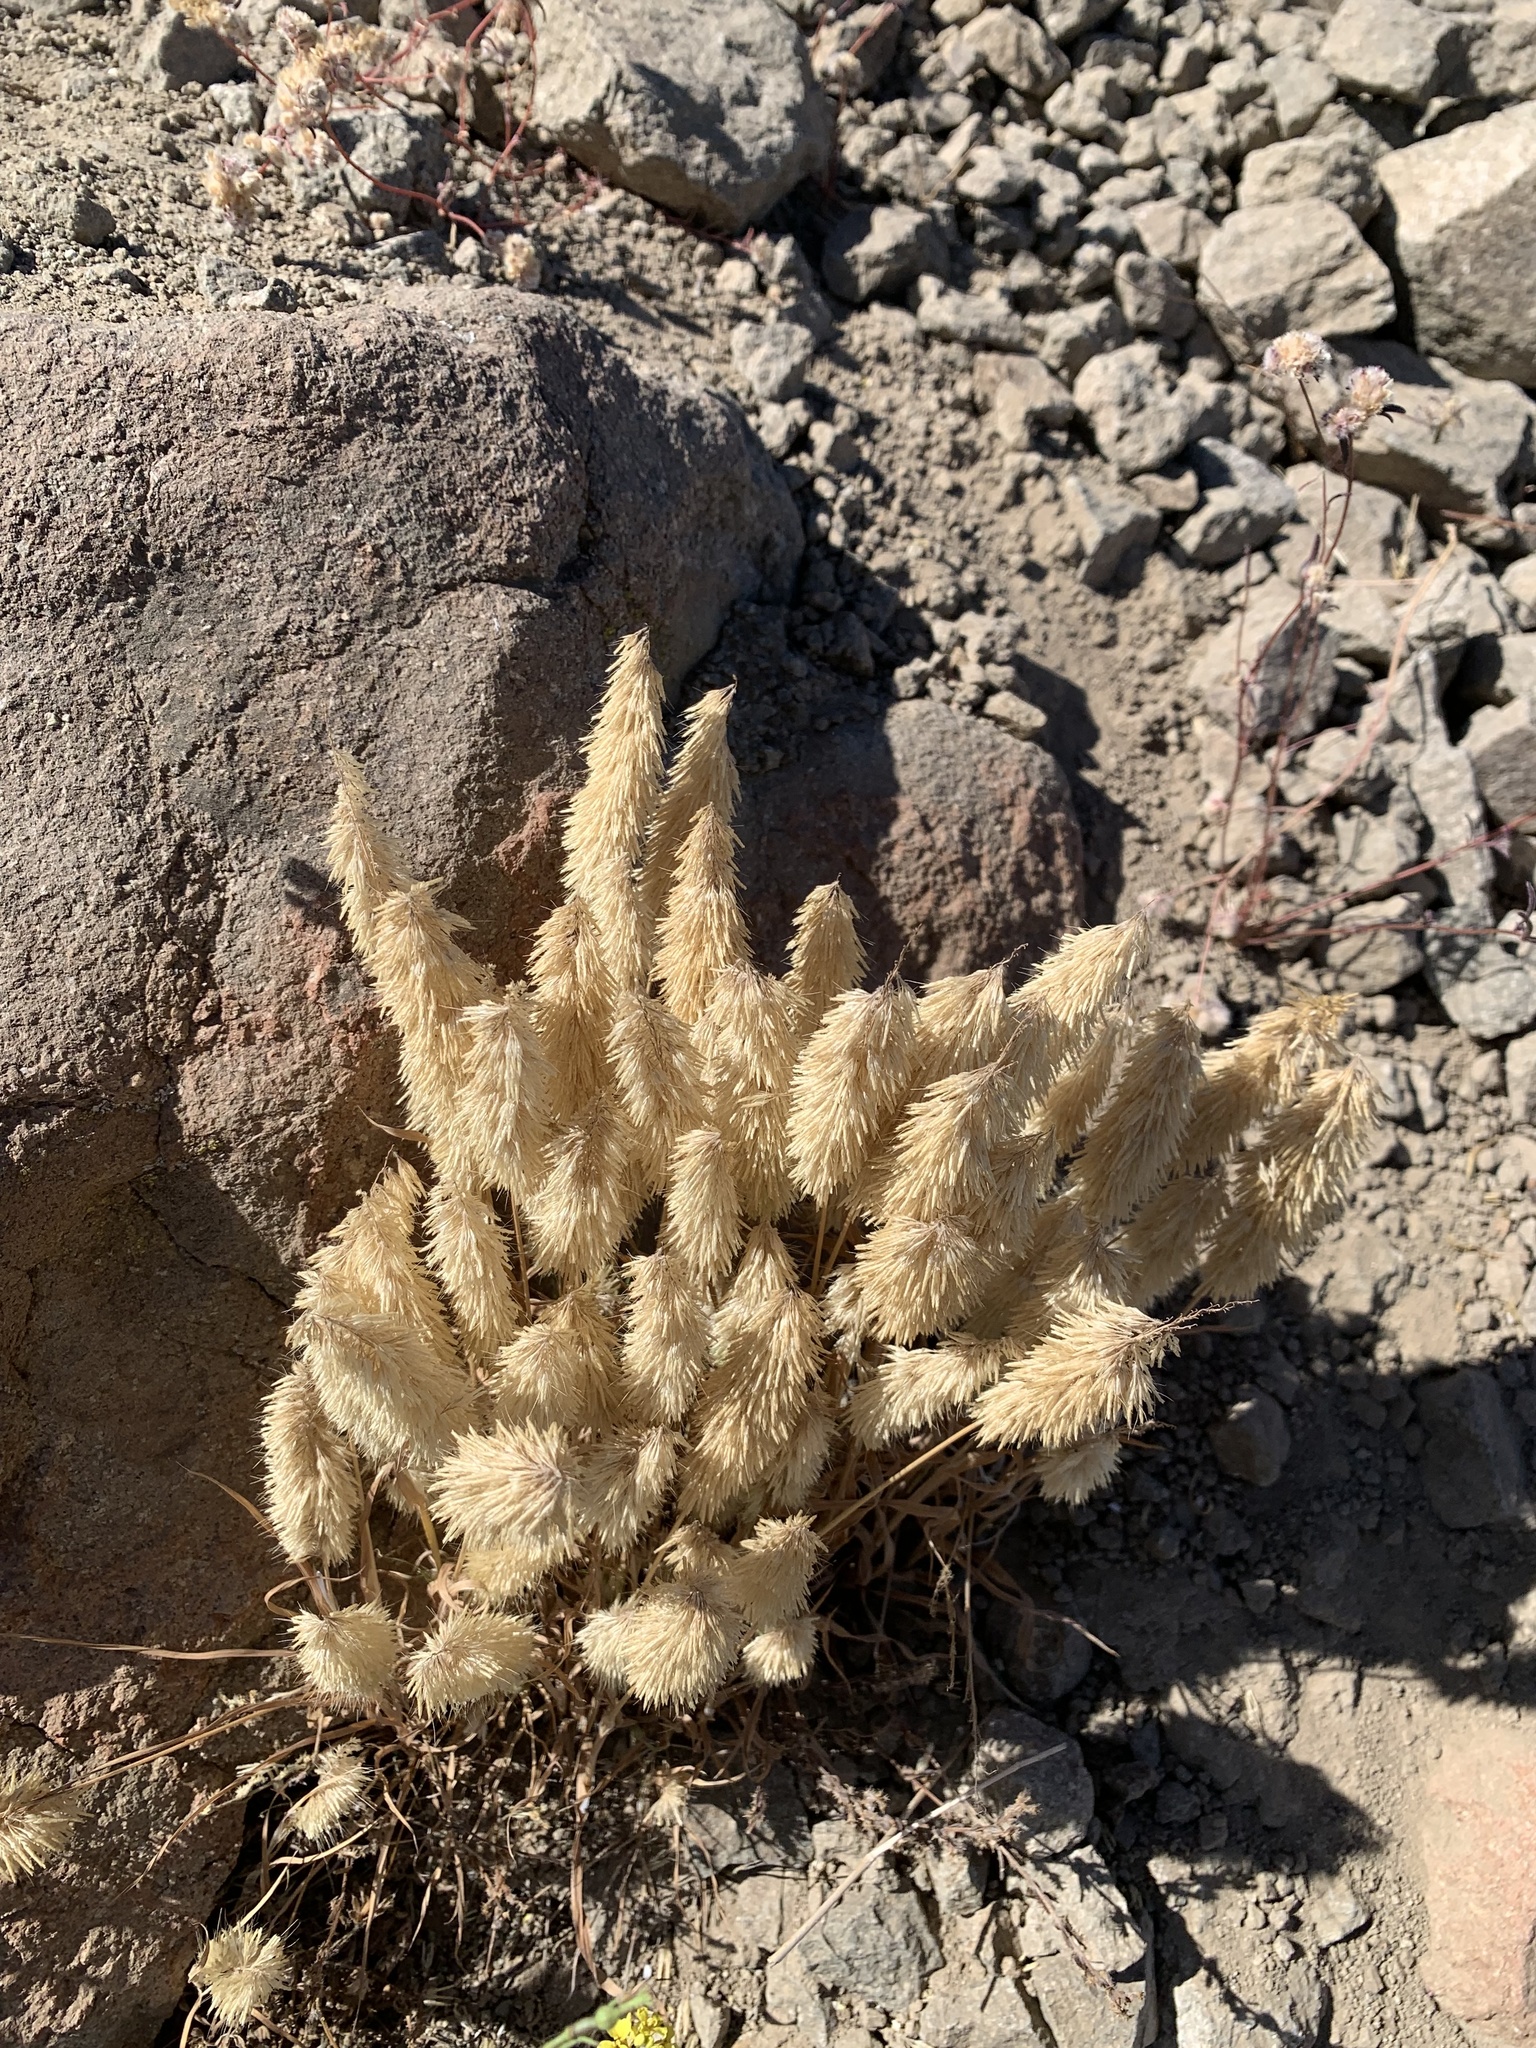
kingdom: Plantae
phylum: Tracheophyta
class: Liliopsida
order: Poales
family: Poaceae
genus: Lamarckia
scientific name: Lamarckia aurea
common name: Golden dog's-tail
